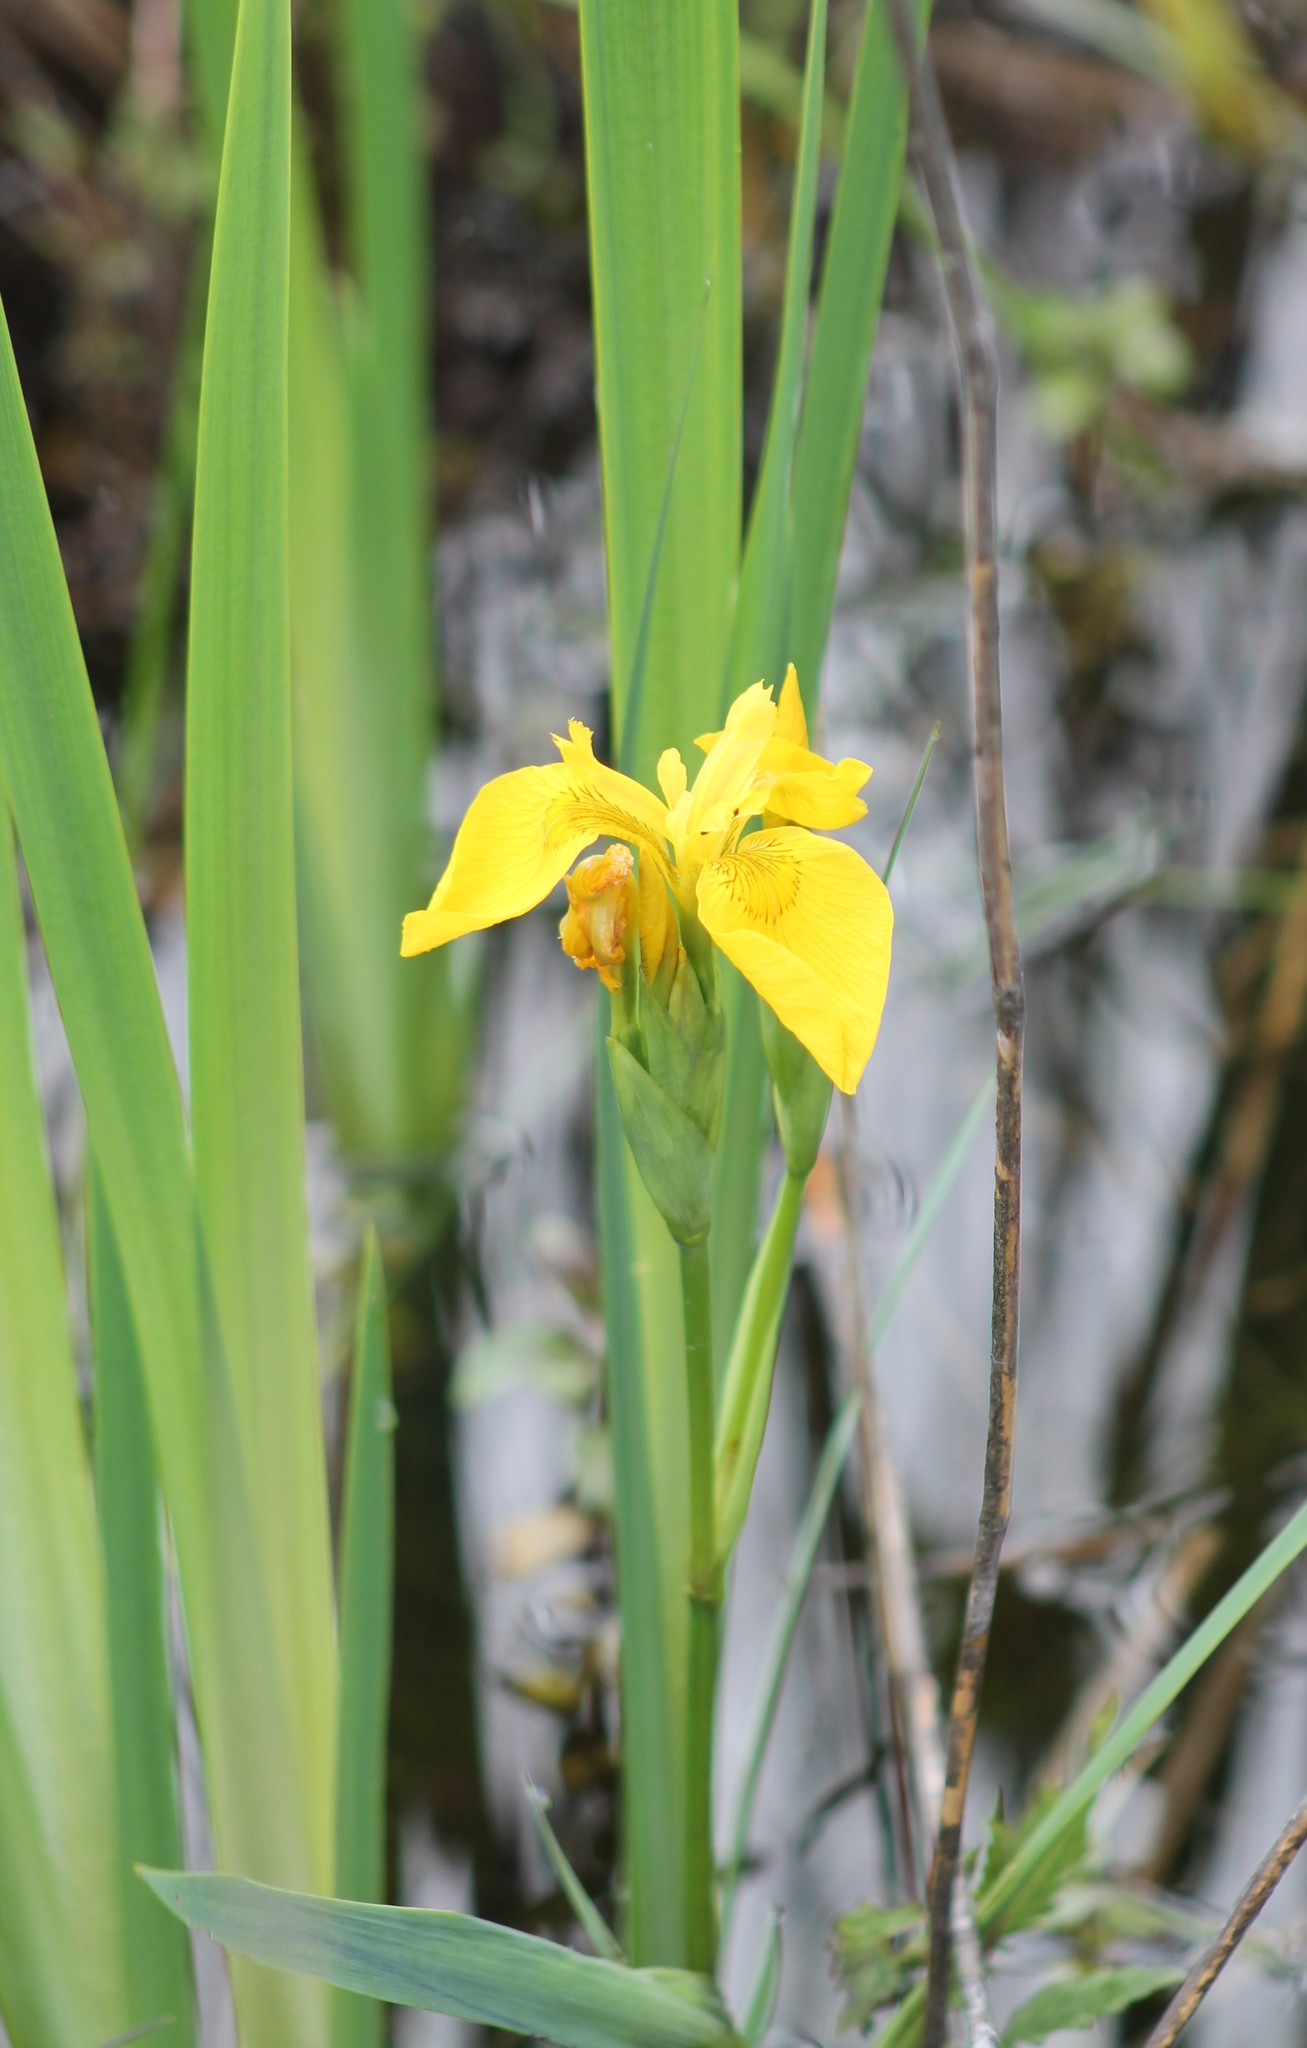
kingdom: Plantae
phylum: Tracheophyta
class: Liliopsida
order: Asparagales
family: Iridaceae
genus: Iris
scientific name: Iris pseudacorus
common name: Yellow flag
